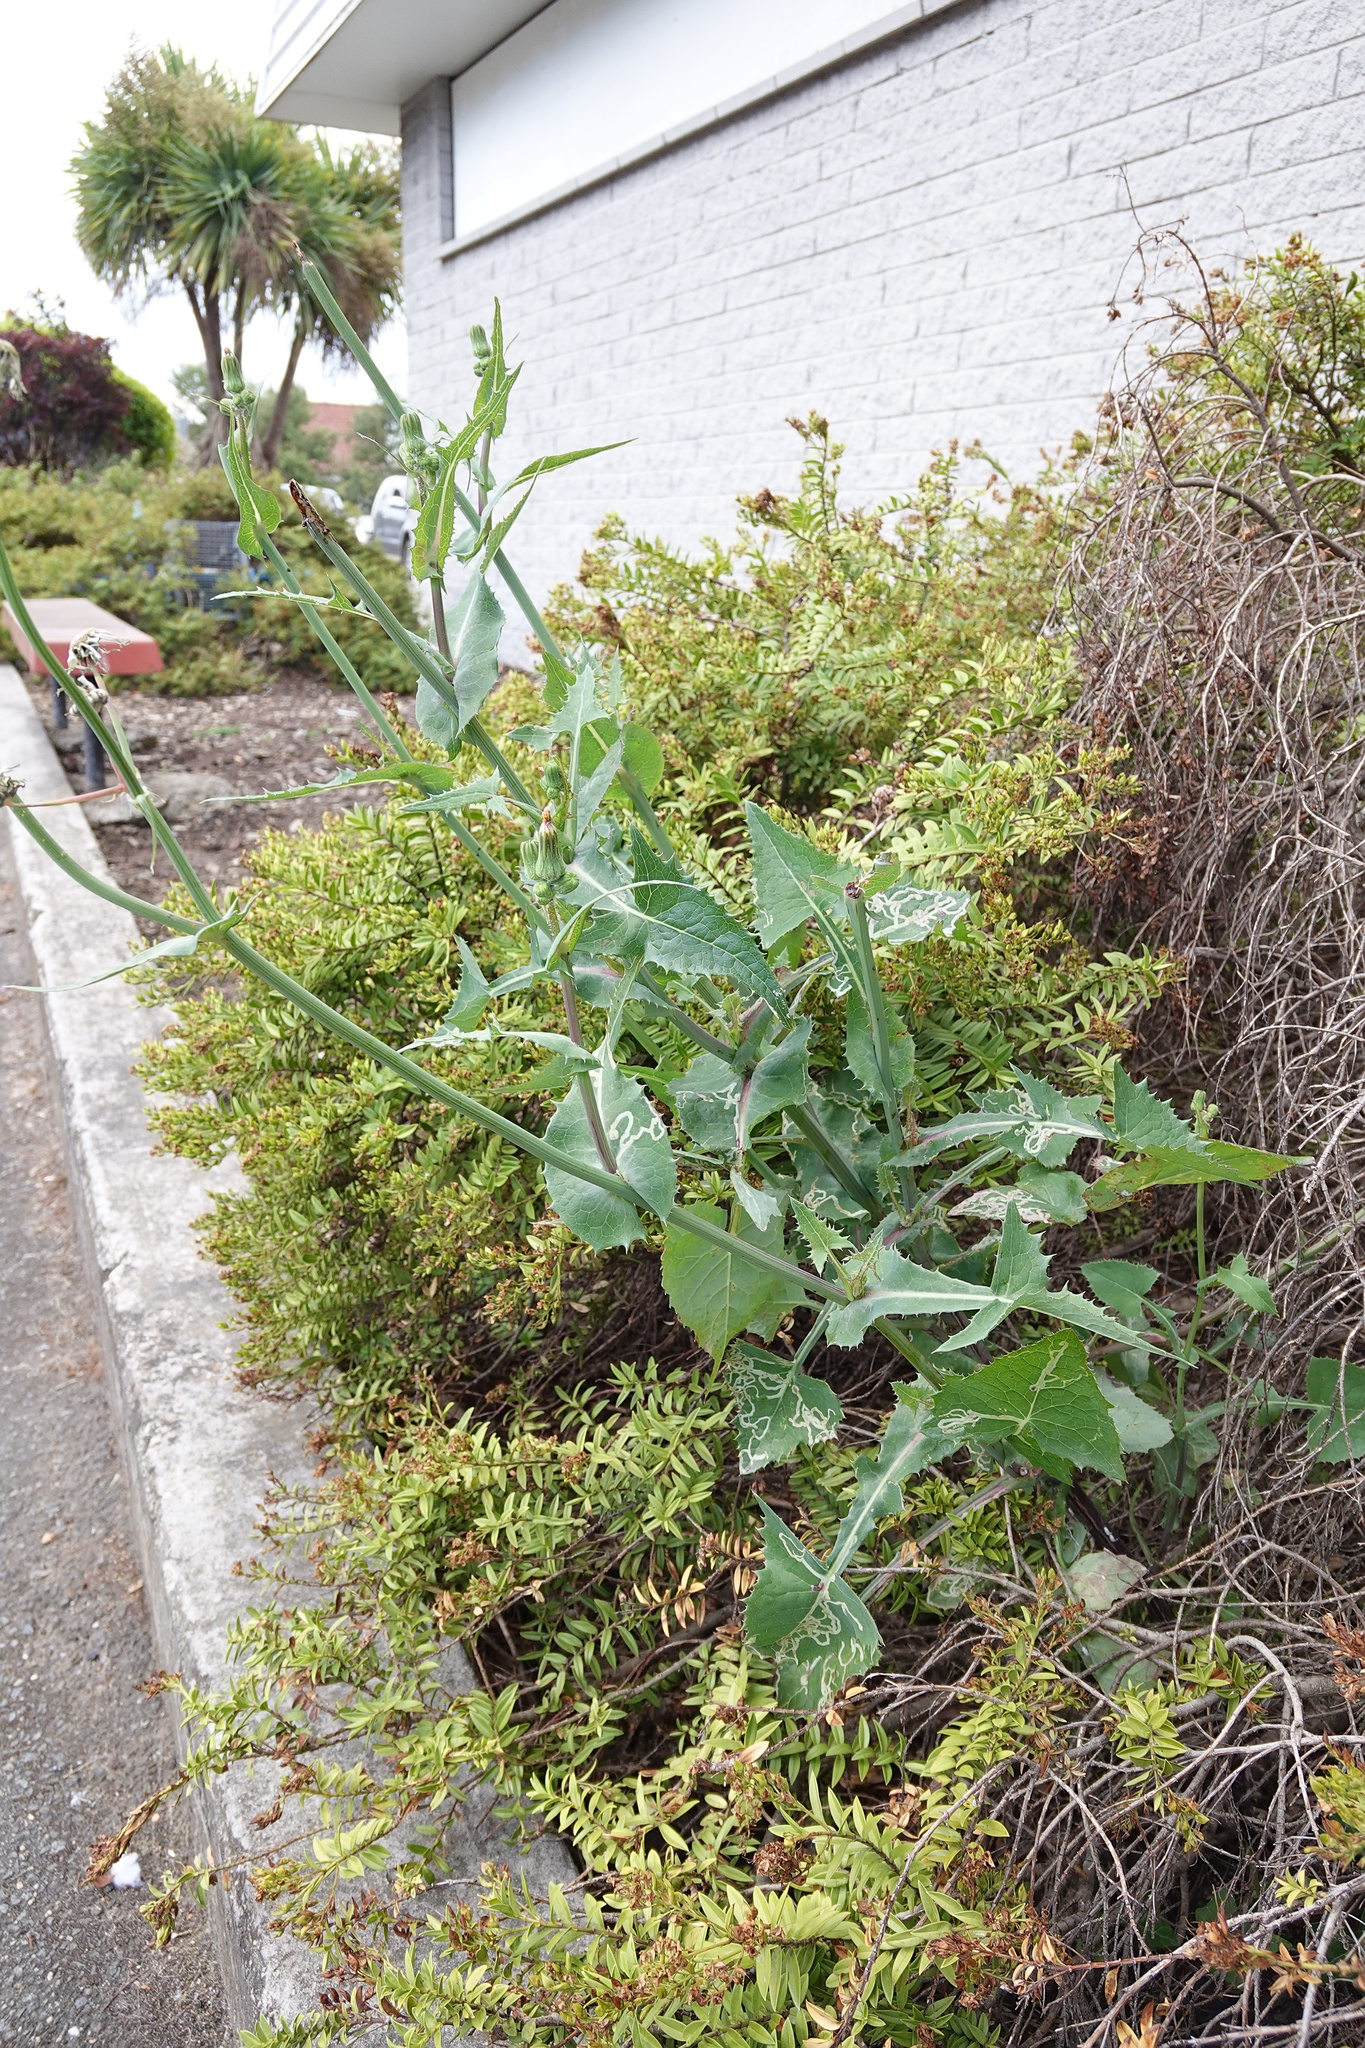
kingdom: Plantae
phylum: Tracheophyta
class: Magnoliopsida
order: Asterales
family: Asteraceae
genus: Sonchus
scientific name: Sonchus oleraceus
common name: Common sowthistle
